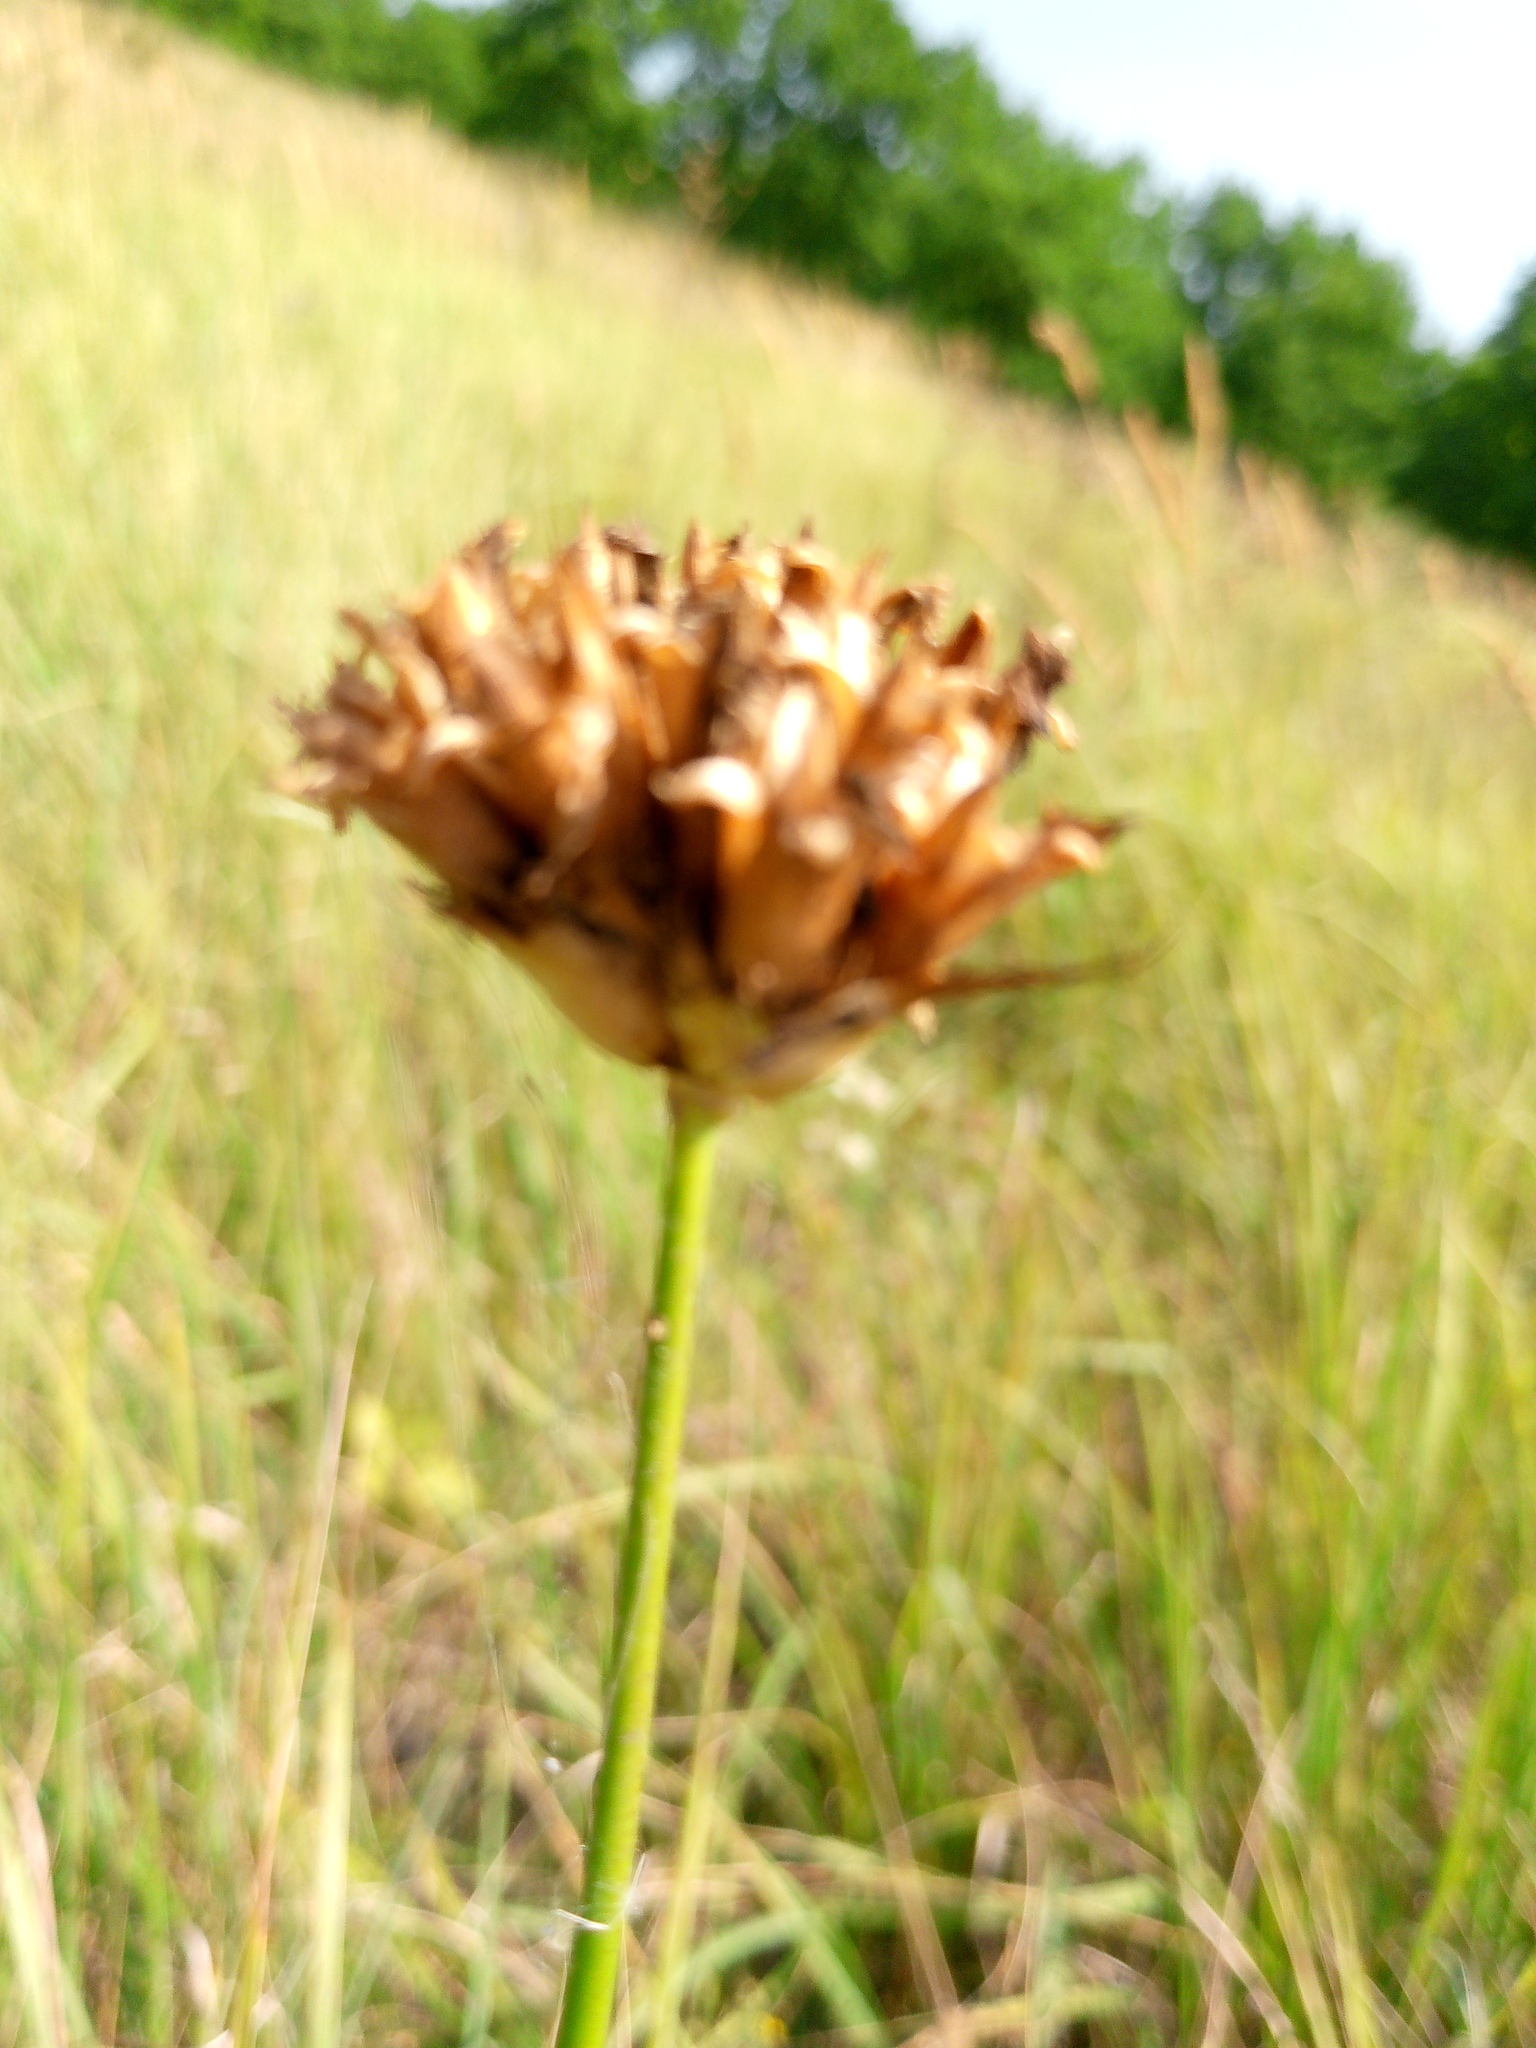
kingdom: Plantae
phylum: Tracheophyta
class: Magnoliopsida
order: Caryophyllales
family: Caryophyllaceae
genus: Dianthus
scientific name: Dianthus capitatus
